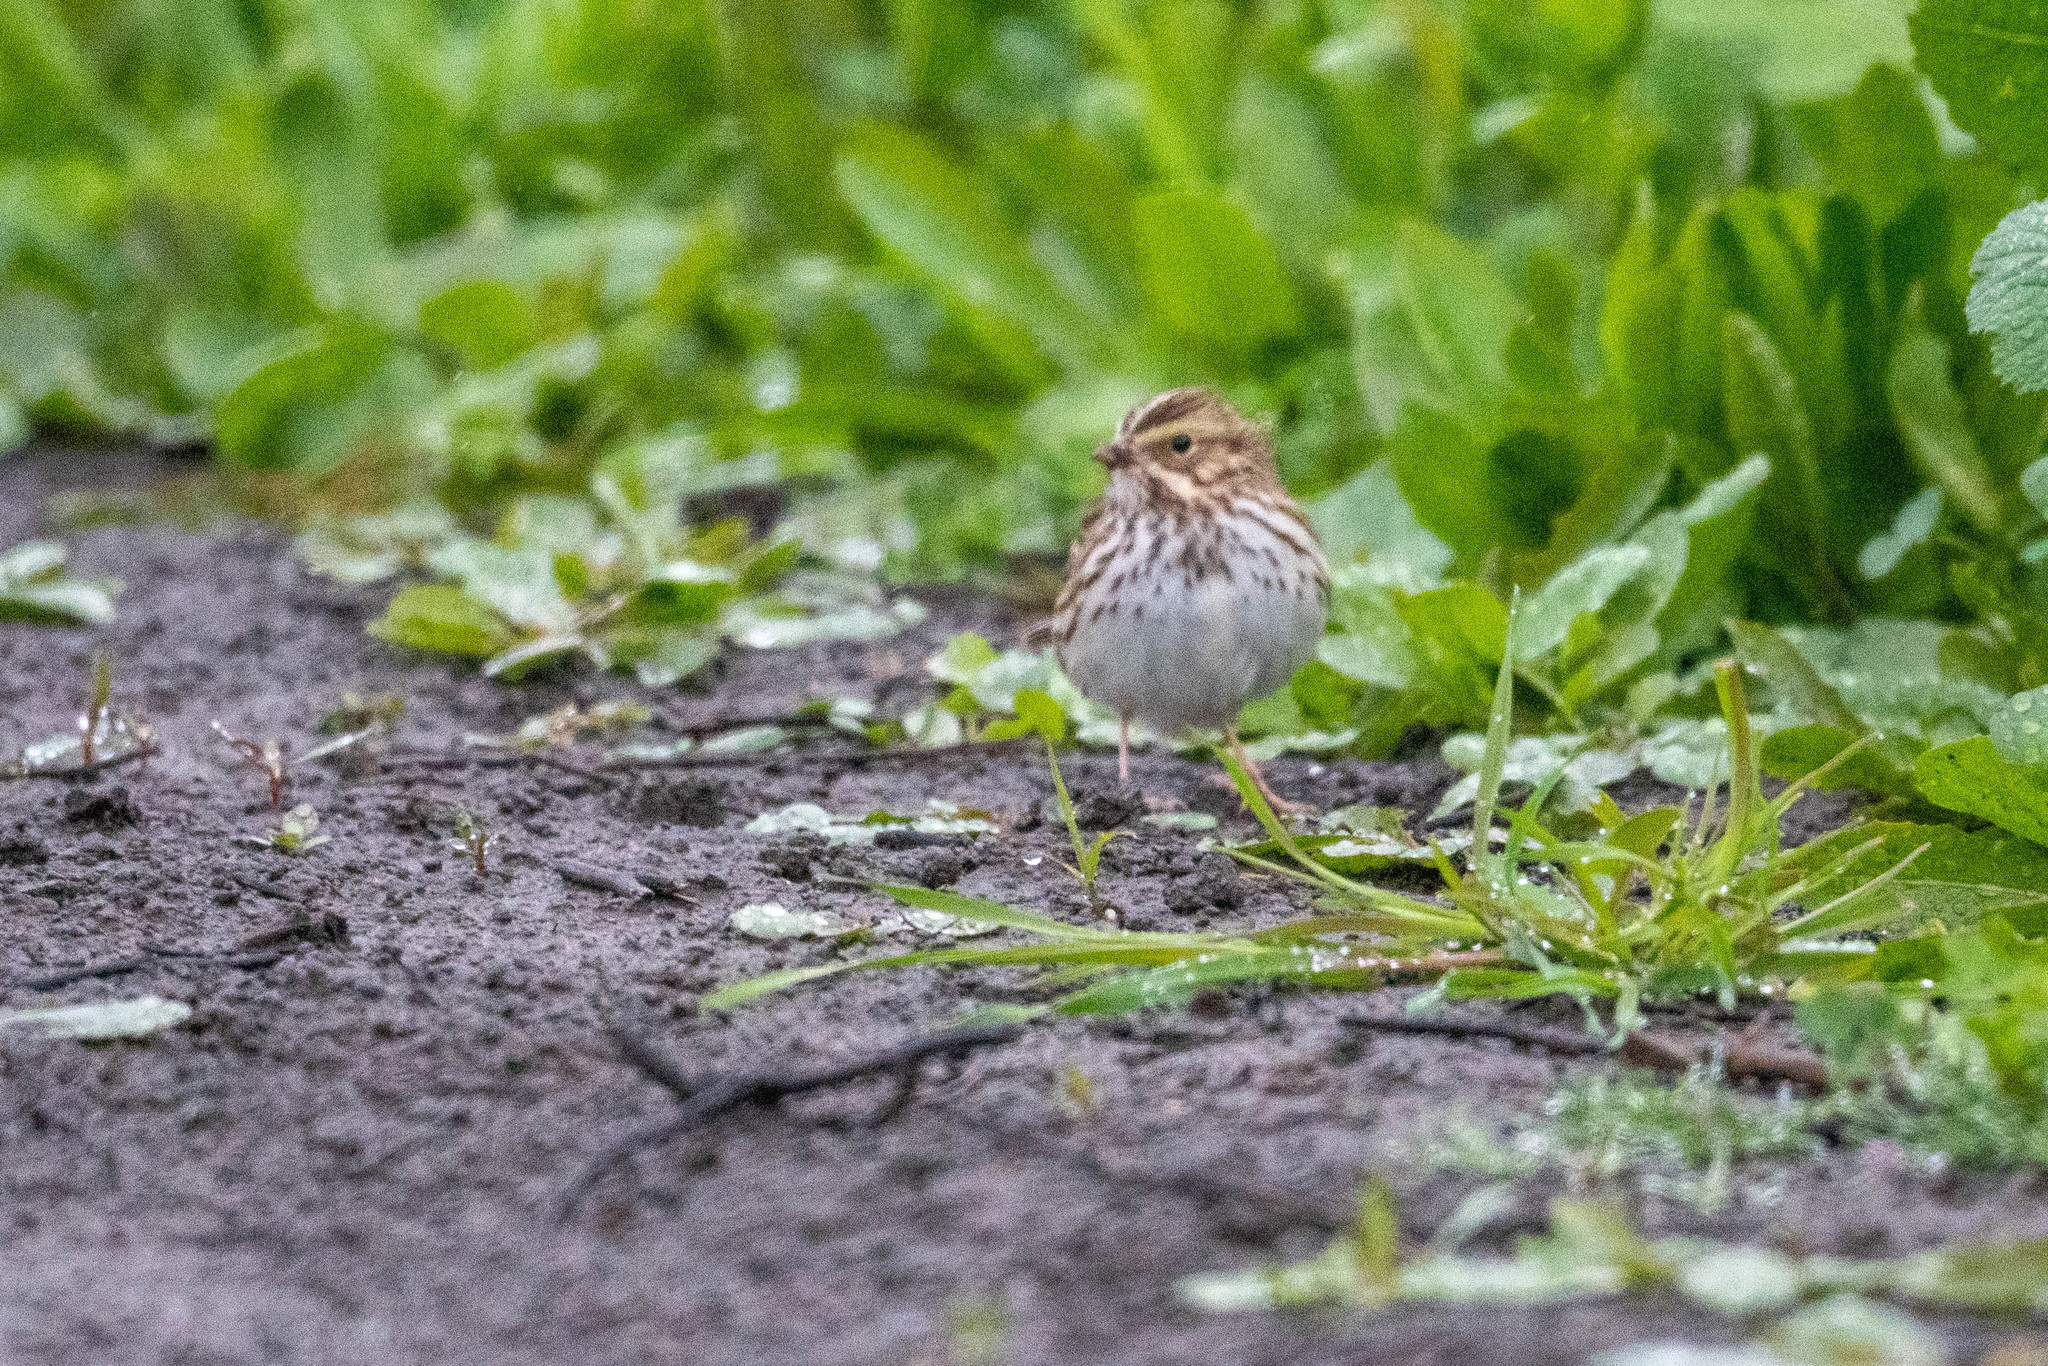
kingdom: Animalia
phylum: Chordata
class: Aves
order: Passeriformes
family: Passerellidae
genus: Passerculus
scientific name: Passerculus sandwichensis
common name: Savannah sparrow
